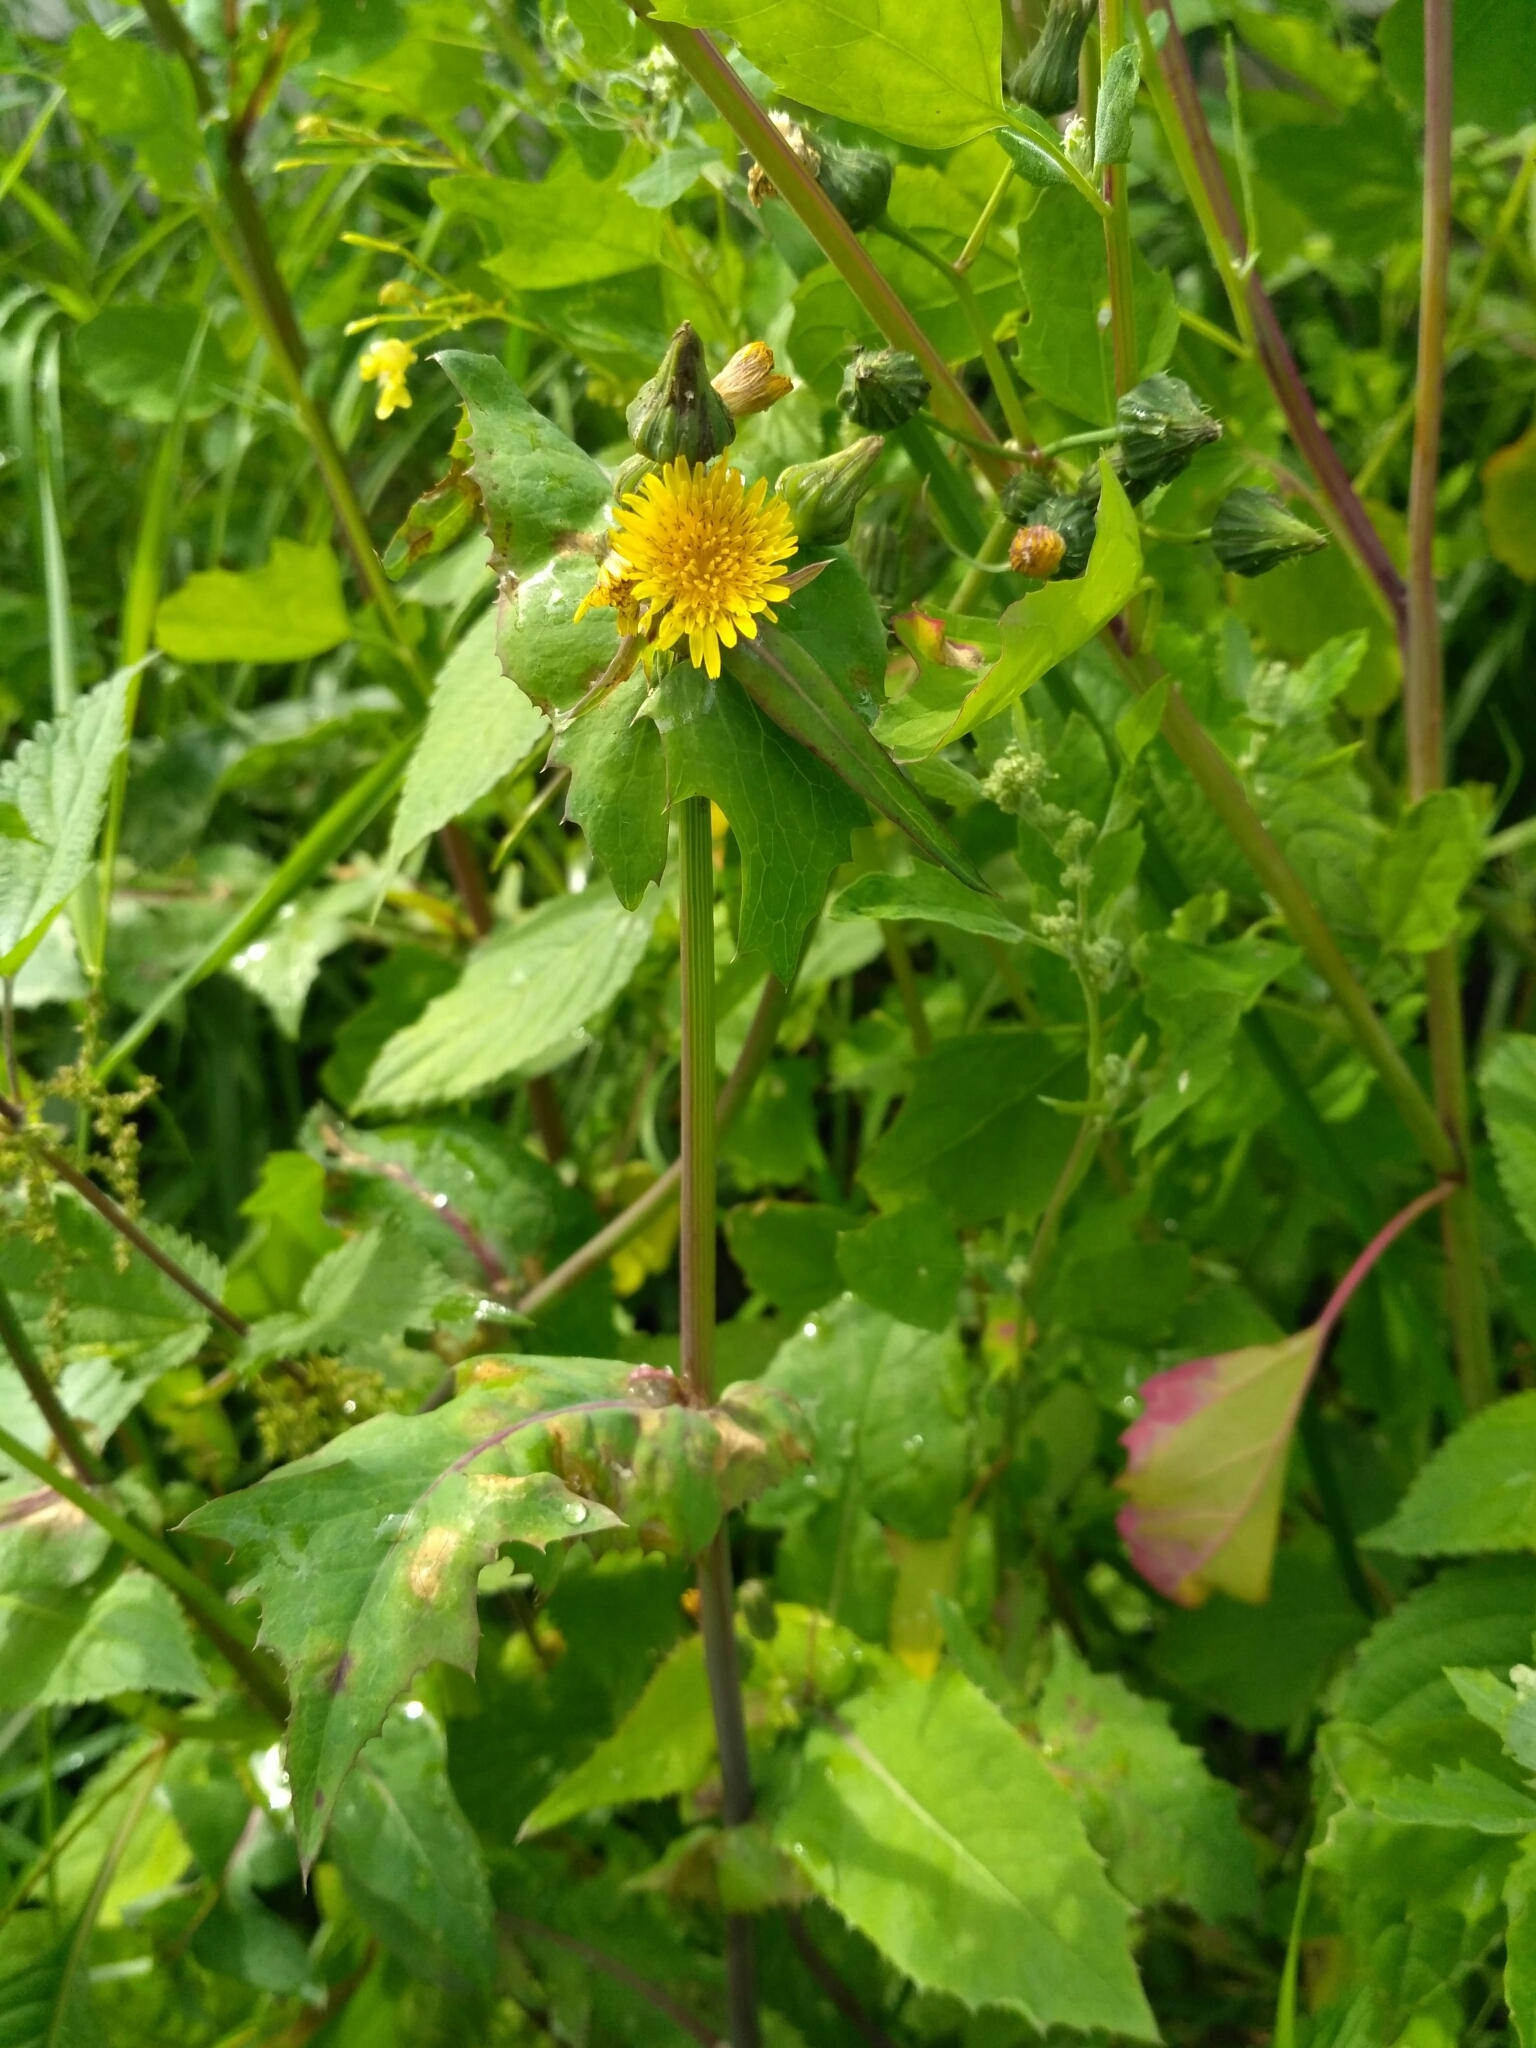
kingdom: Plantae
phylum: Tracheophyta
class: Magnoliopsida
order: Asterales
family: Asteraceae
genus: Sonchus
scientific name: Sonchus oleraceus
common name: Common sowthistle
